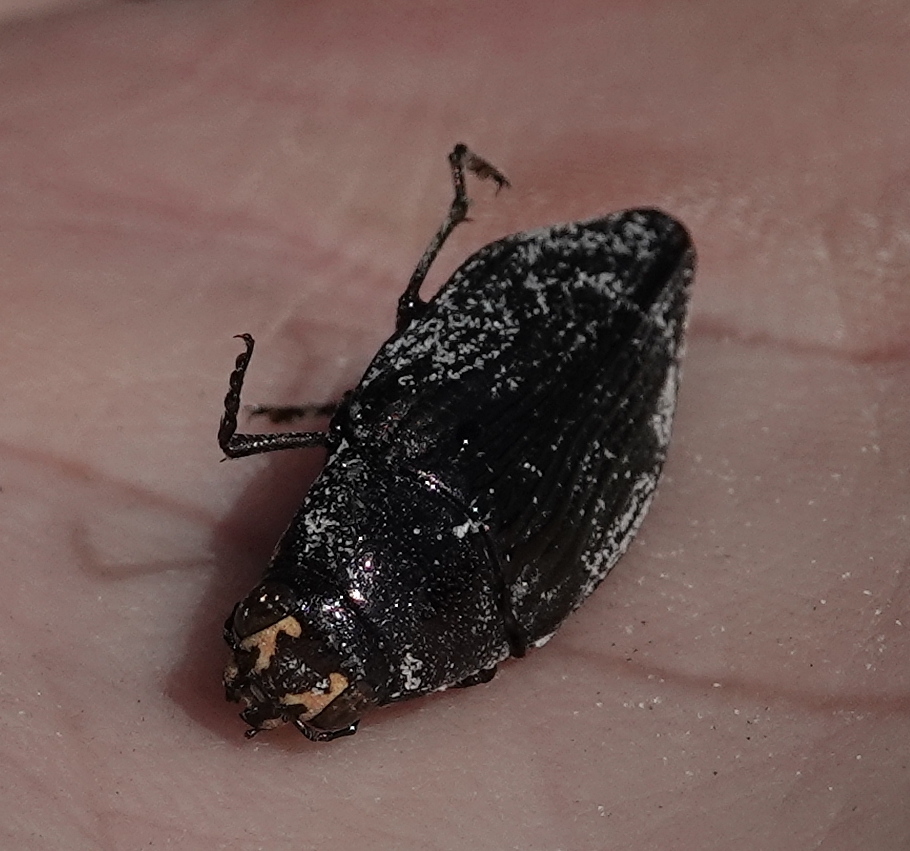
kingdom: Animalia
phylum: Arthropoda
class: Insecta
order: Coleoptera
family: Buprestidae
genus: Buprestis
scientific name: Buprestis maculativentris
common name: Spotted-belly buprestid beetle
